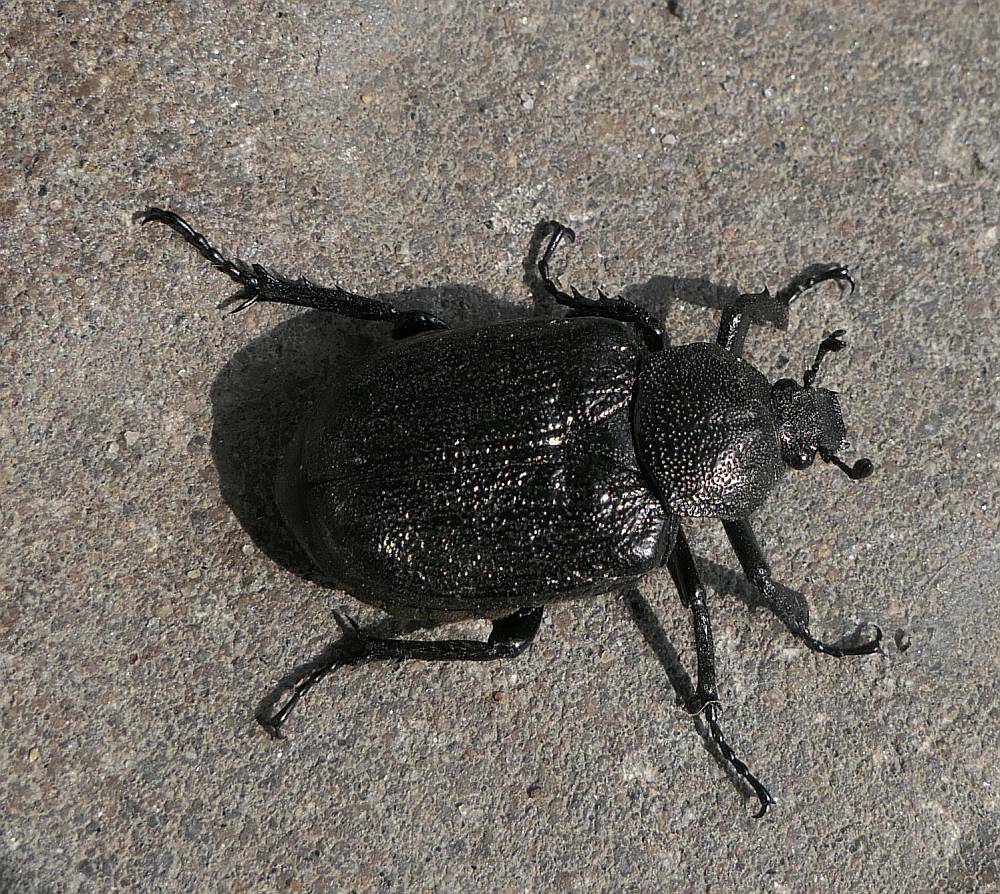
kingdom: Animalia
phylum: Arthropoda
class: Insecta
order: Coleoptera
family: Scarabaeidae
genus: Osmoderma
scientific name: Osmoderma scabra
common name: Rough hermit beetle
